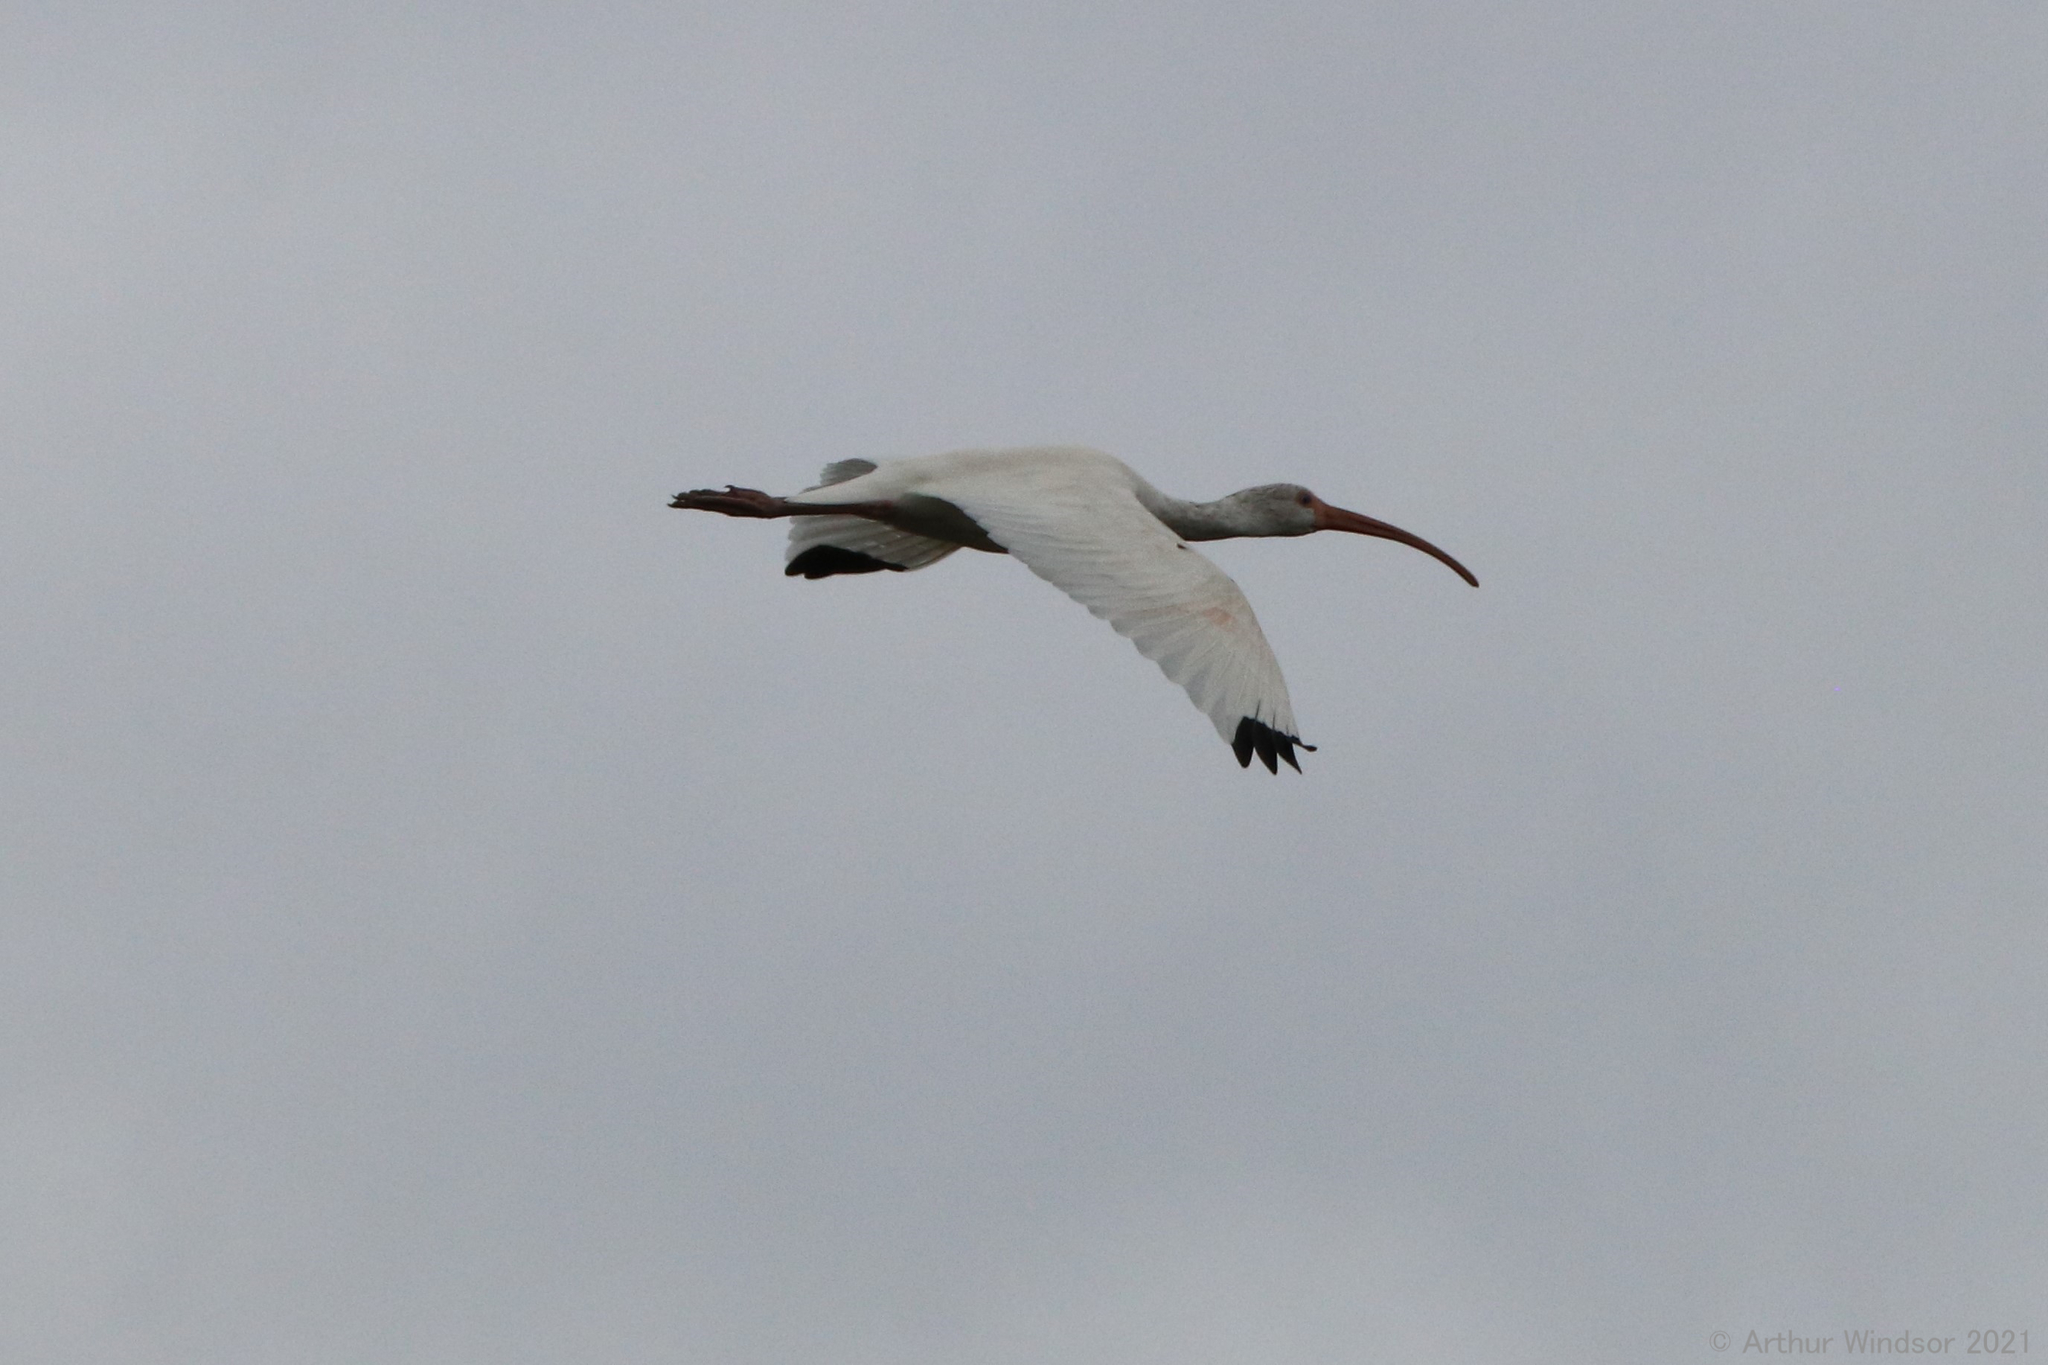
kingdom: Animalia
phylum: Chordata
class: Aves
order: Pelecaniformes
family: Threskiornithidae
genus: Eudocimus
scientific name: Eudocimus albus
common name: White ibis
